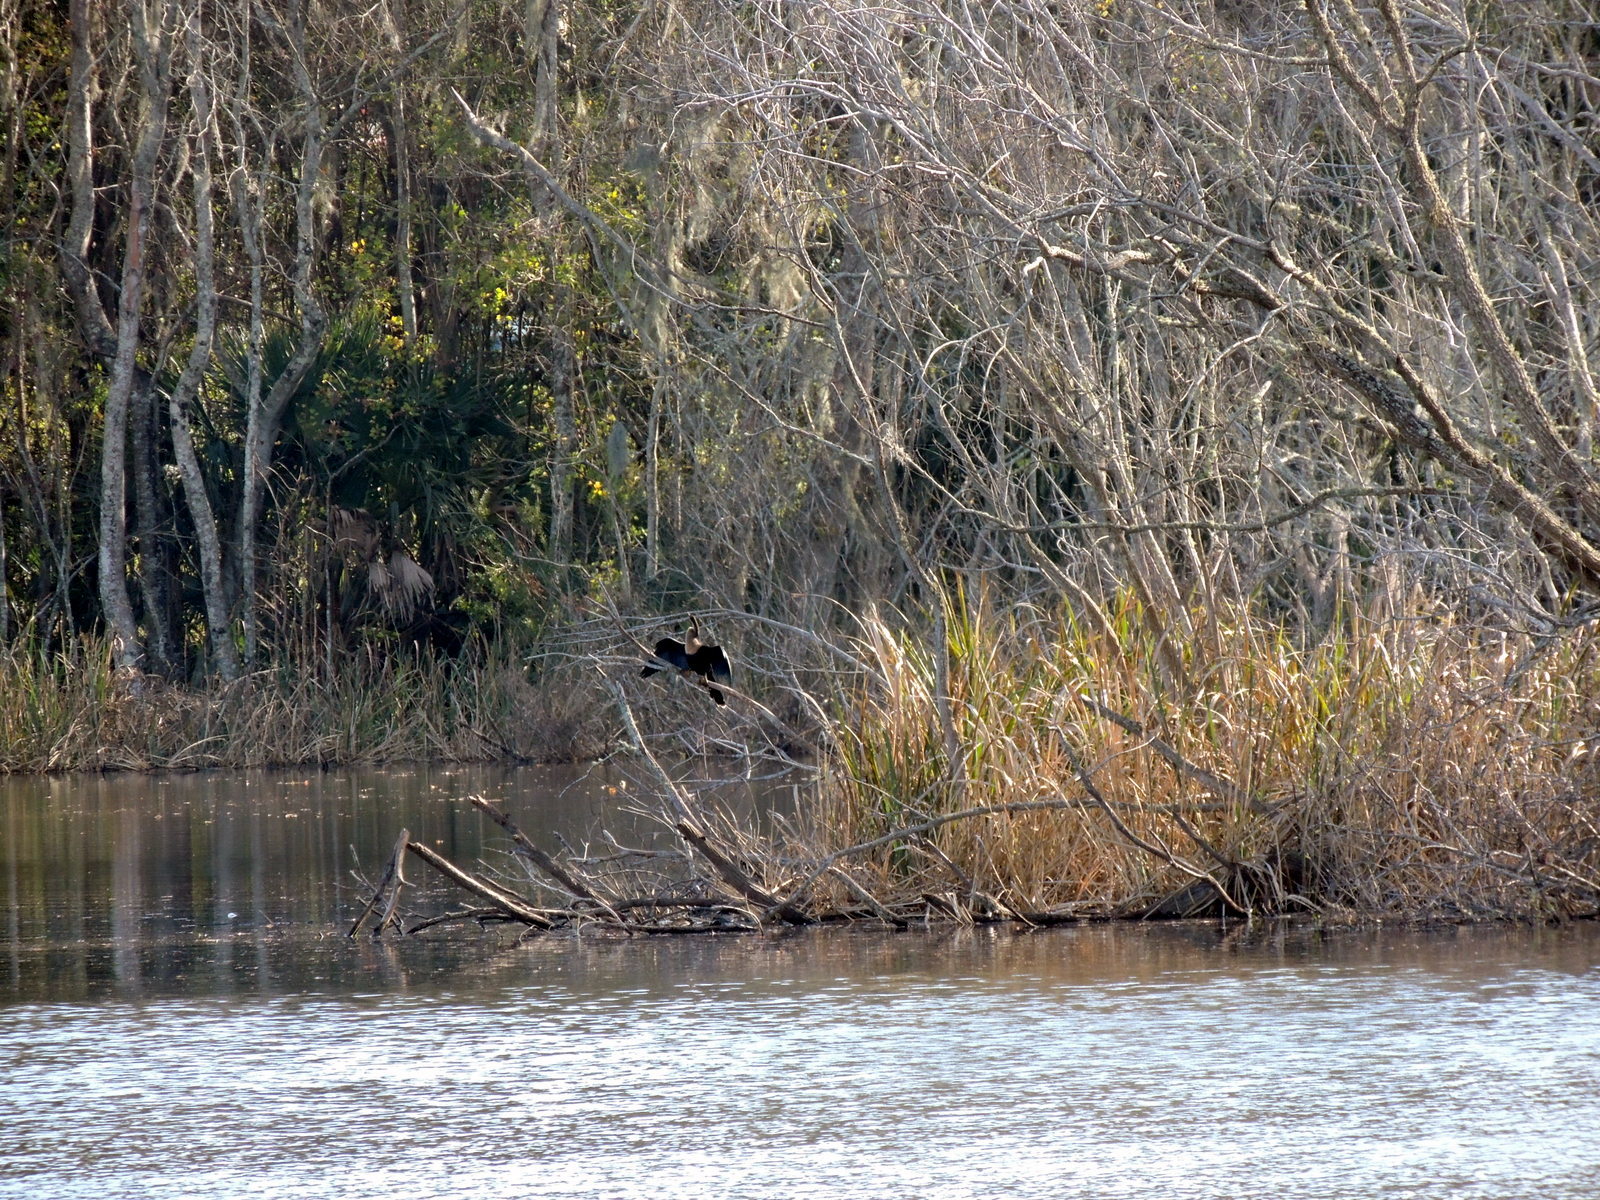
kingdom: Animalia
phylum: Chordata
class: Aves
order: Suliformes
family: Anhingidae
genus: Anhinga
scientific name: Anhinga anhinga
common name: Anhinga
